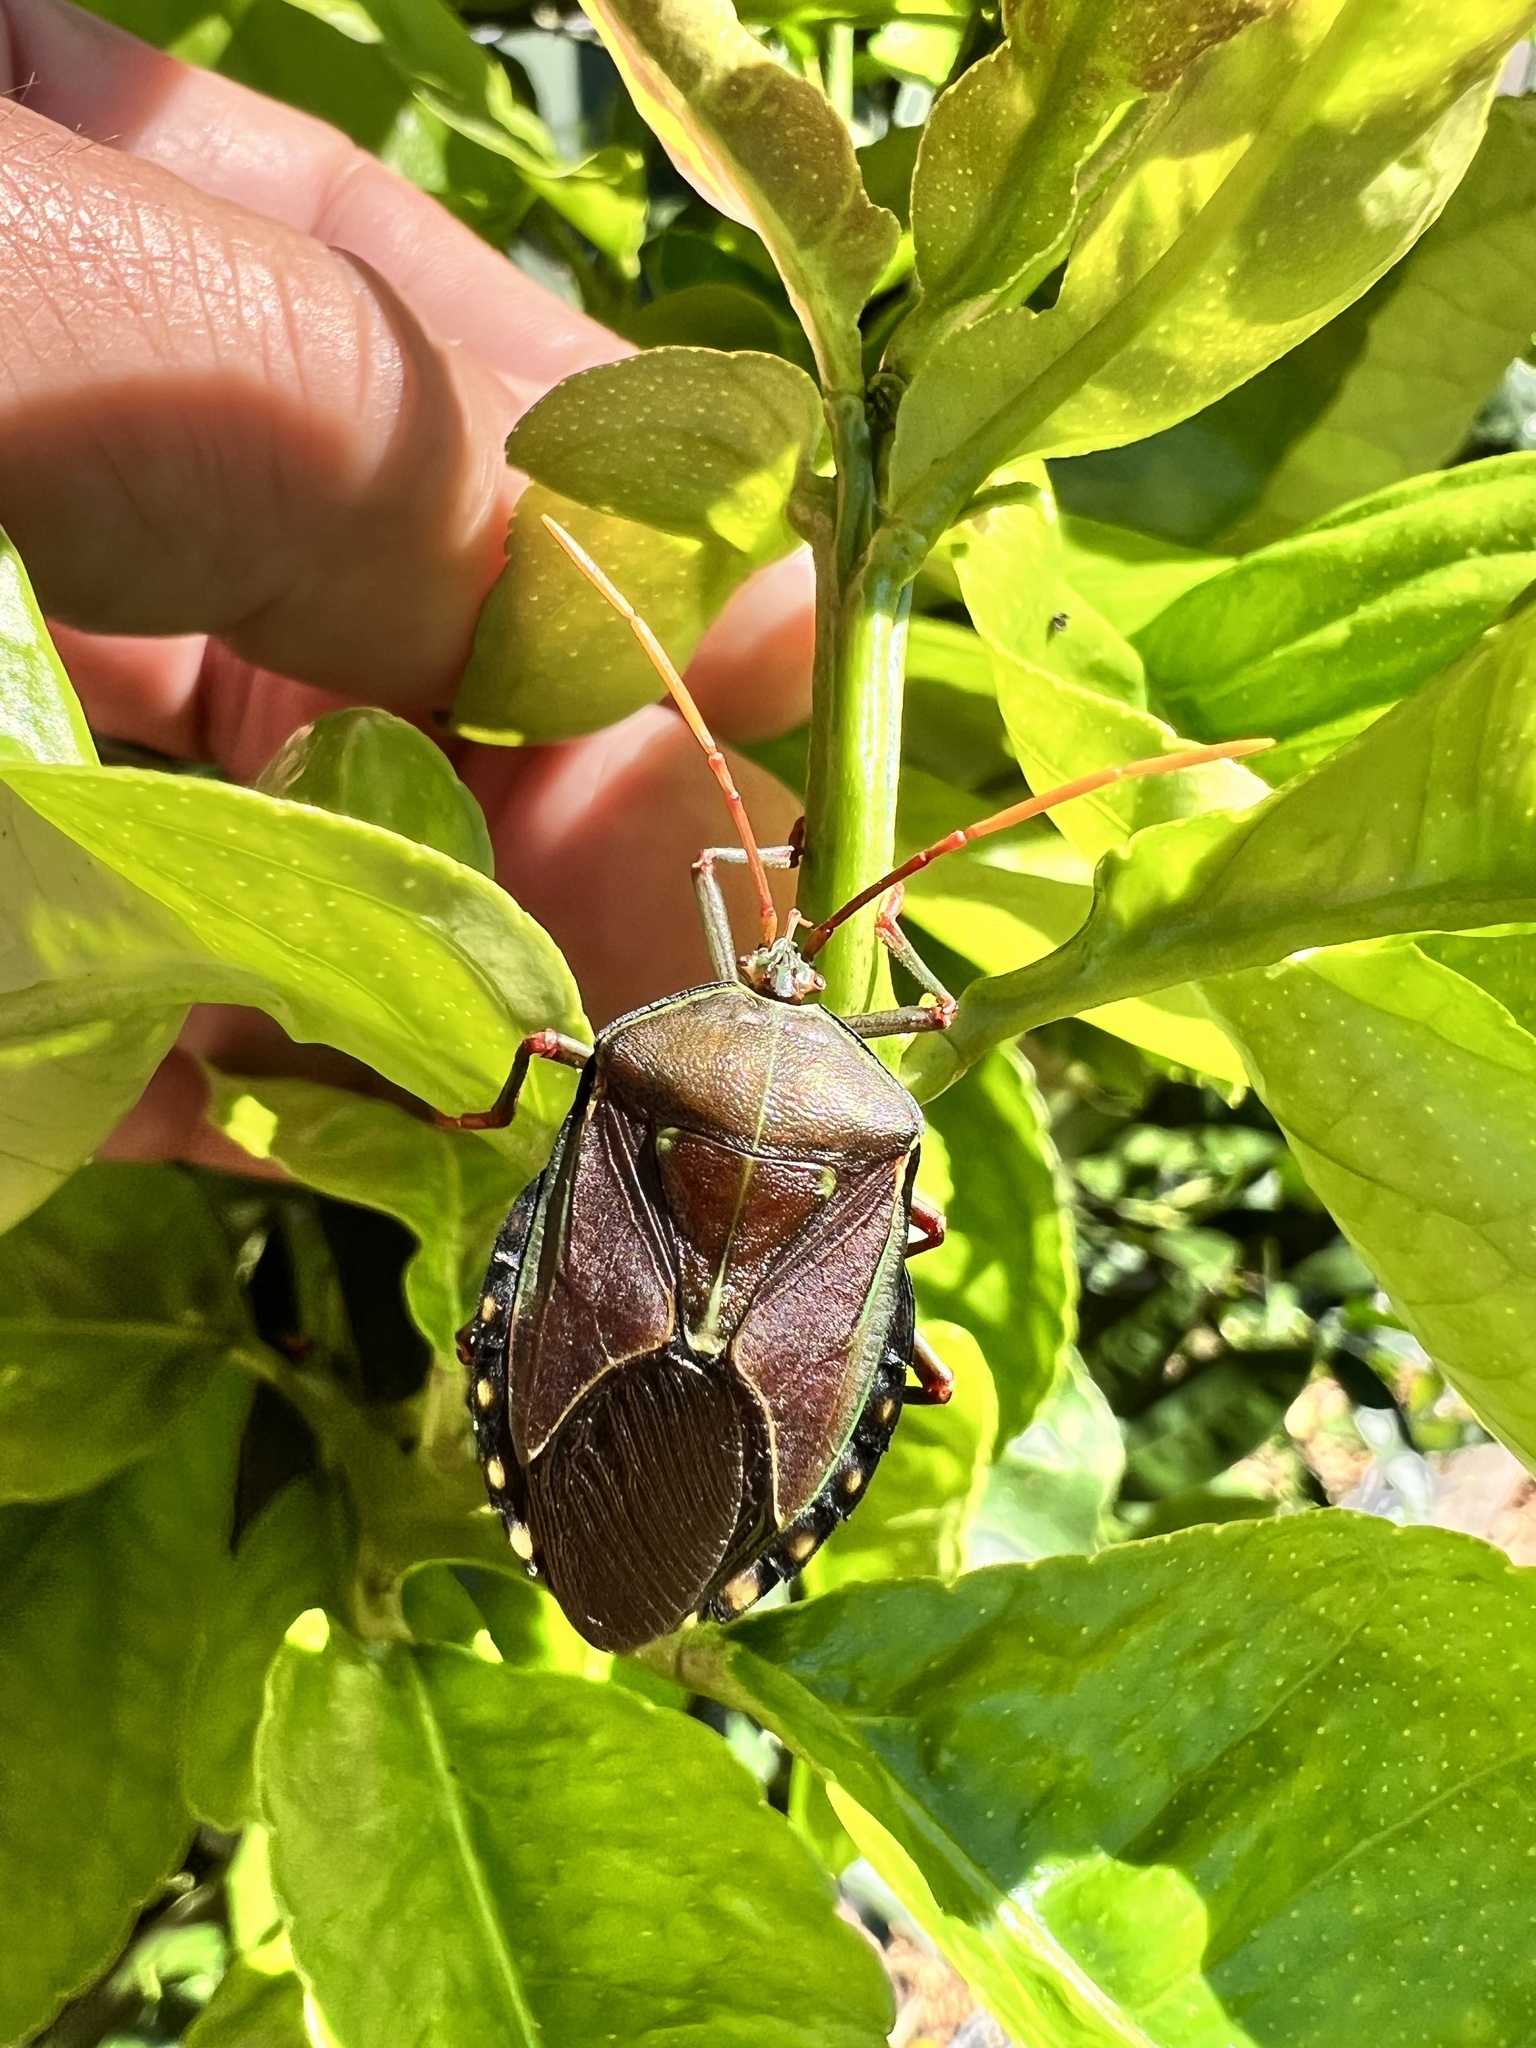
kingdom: Animalia
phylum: Arthropoda
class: Insecta
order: Hemiptera
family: Tessaratomidae
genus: Musgraveia
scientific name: Musgraveia sulciventris
